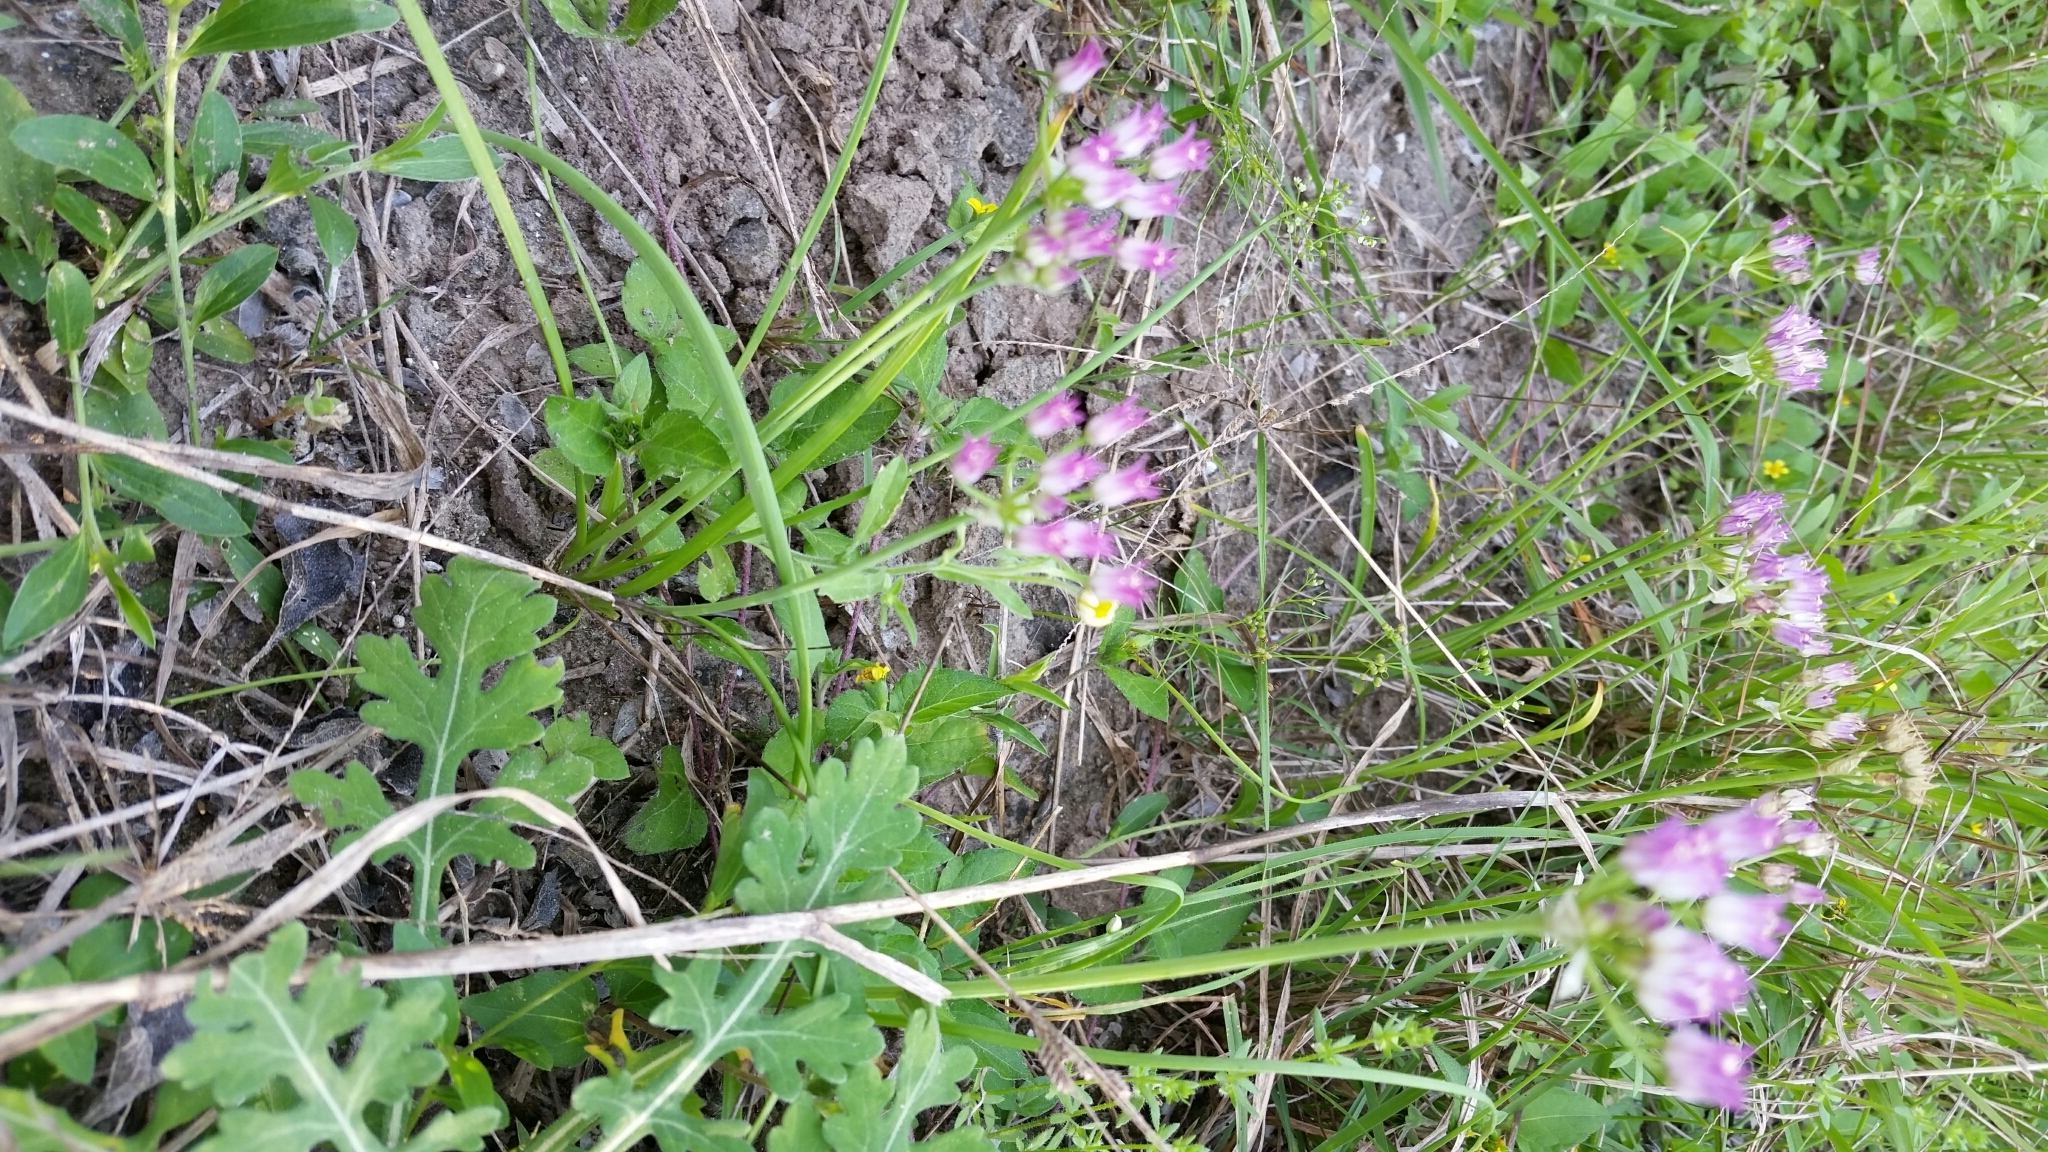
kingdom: Plantae
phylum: Tracheophyta
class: Liliopsida
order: Asparagales
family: Amaryllidaceae
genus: Allium
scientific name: Allium drummondii
